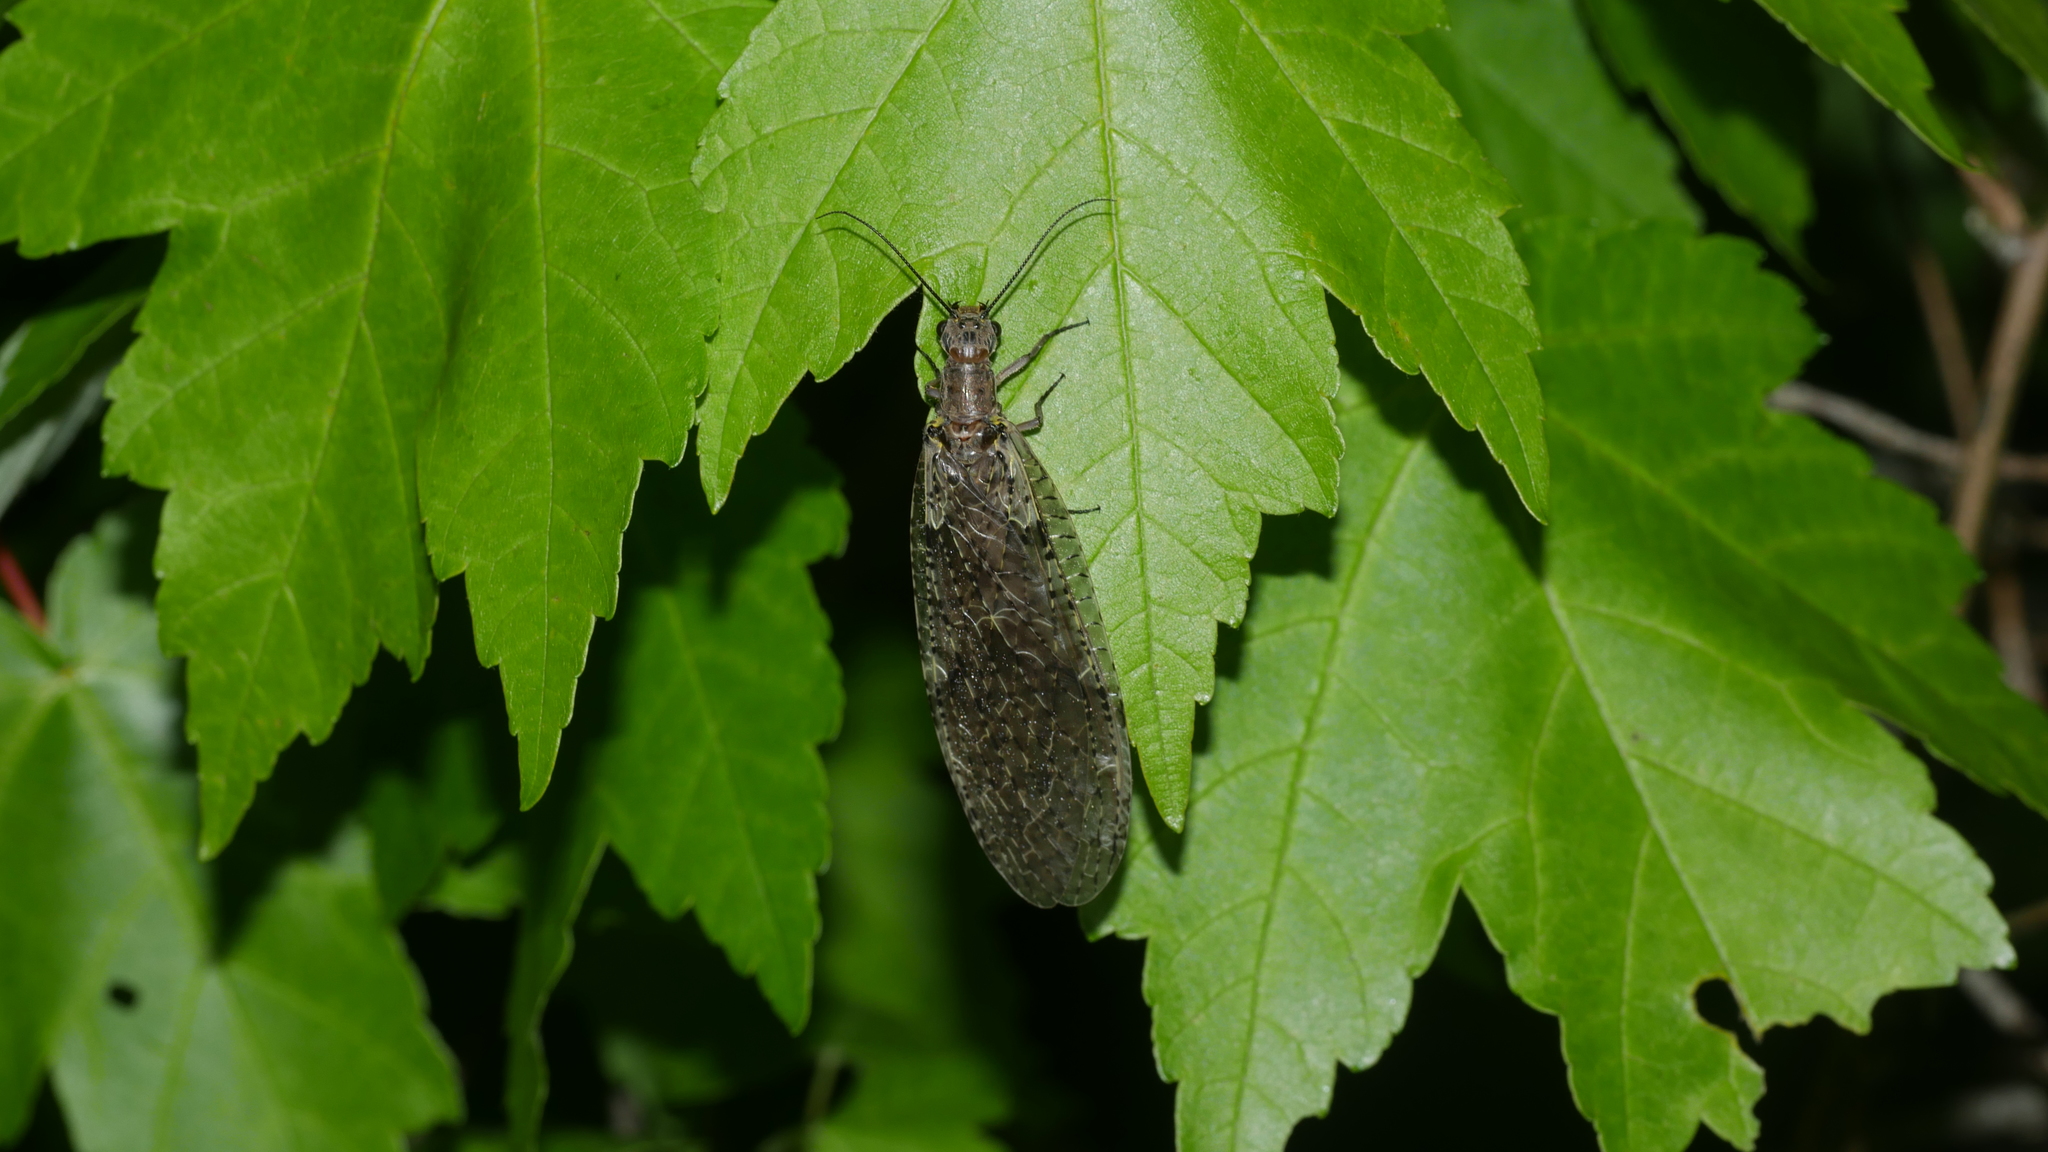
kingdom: Animalia
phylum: Arthropoda
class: Insecta
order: Megaloptera
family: Corydalidae
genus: Chauliodes
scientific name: Chauliodes rastricornis
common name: Spring fishfly
